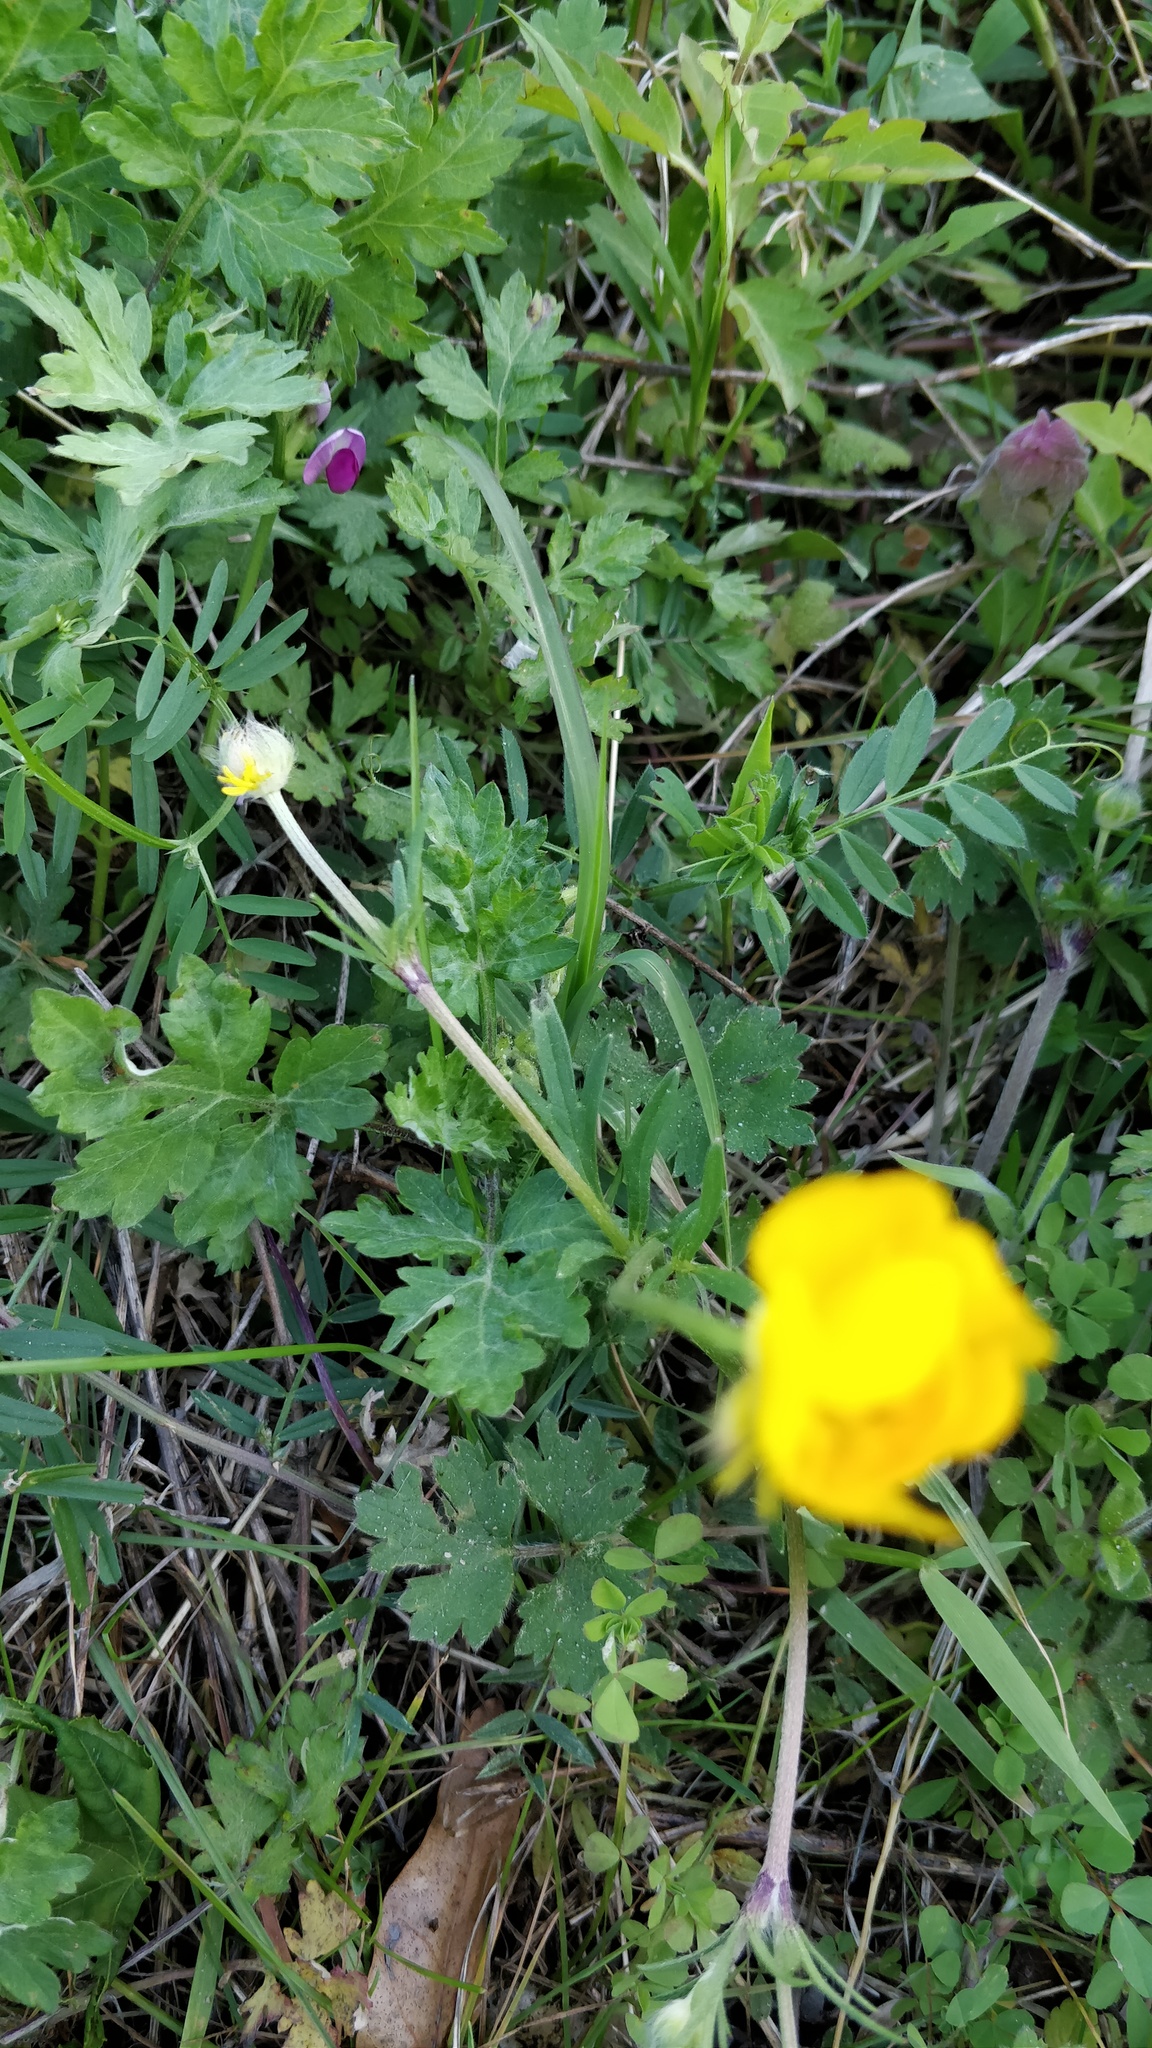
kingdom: Plantae
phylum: Tracheophyta
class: Magnoliopsida
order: Ranunculales
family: Ranunculaceae
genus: Ranunculus
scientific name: Ranunculus bulbosus
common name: Bulbous buttercup
